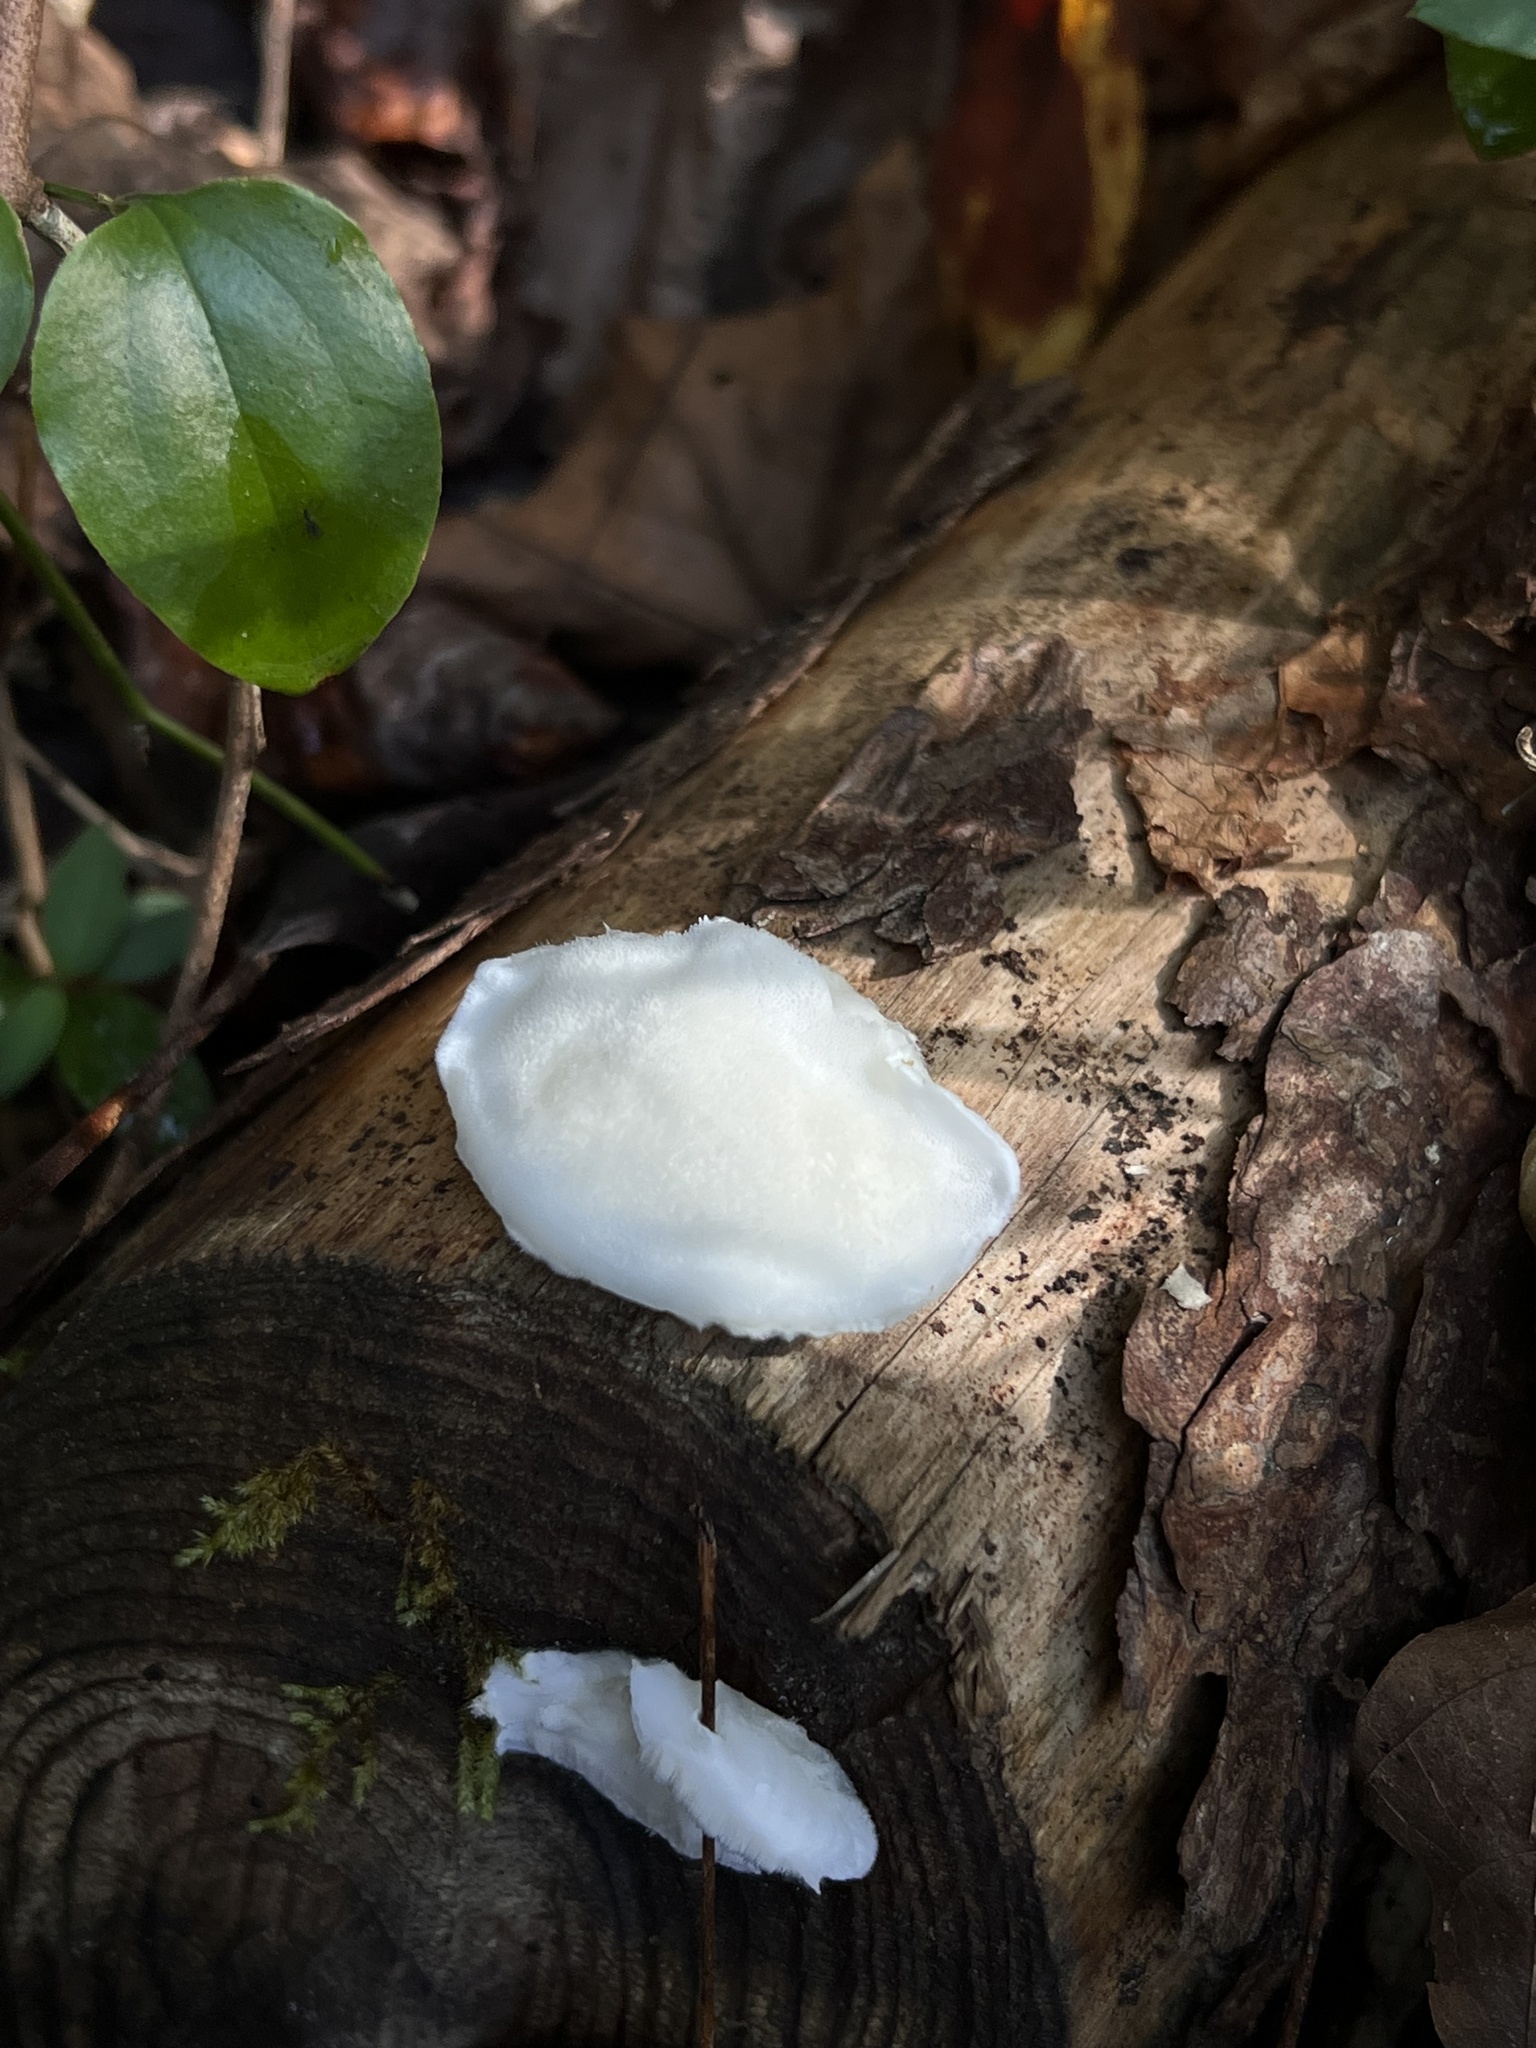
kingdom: Fungi
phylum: Basidiomycota
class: Agaricomycetes
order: Polyporales
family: Polyporaceae
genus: Cyanosporus
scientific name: Cyanosporus caesius
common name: Blue cheese polypore
